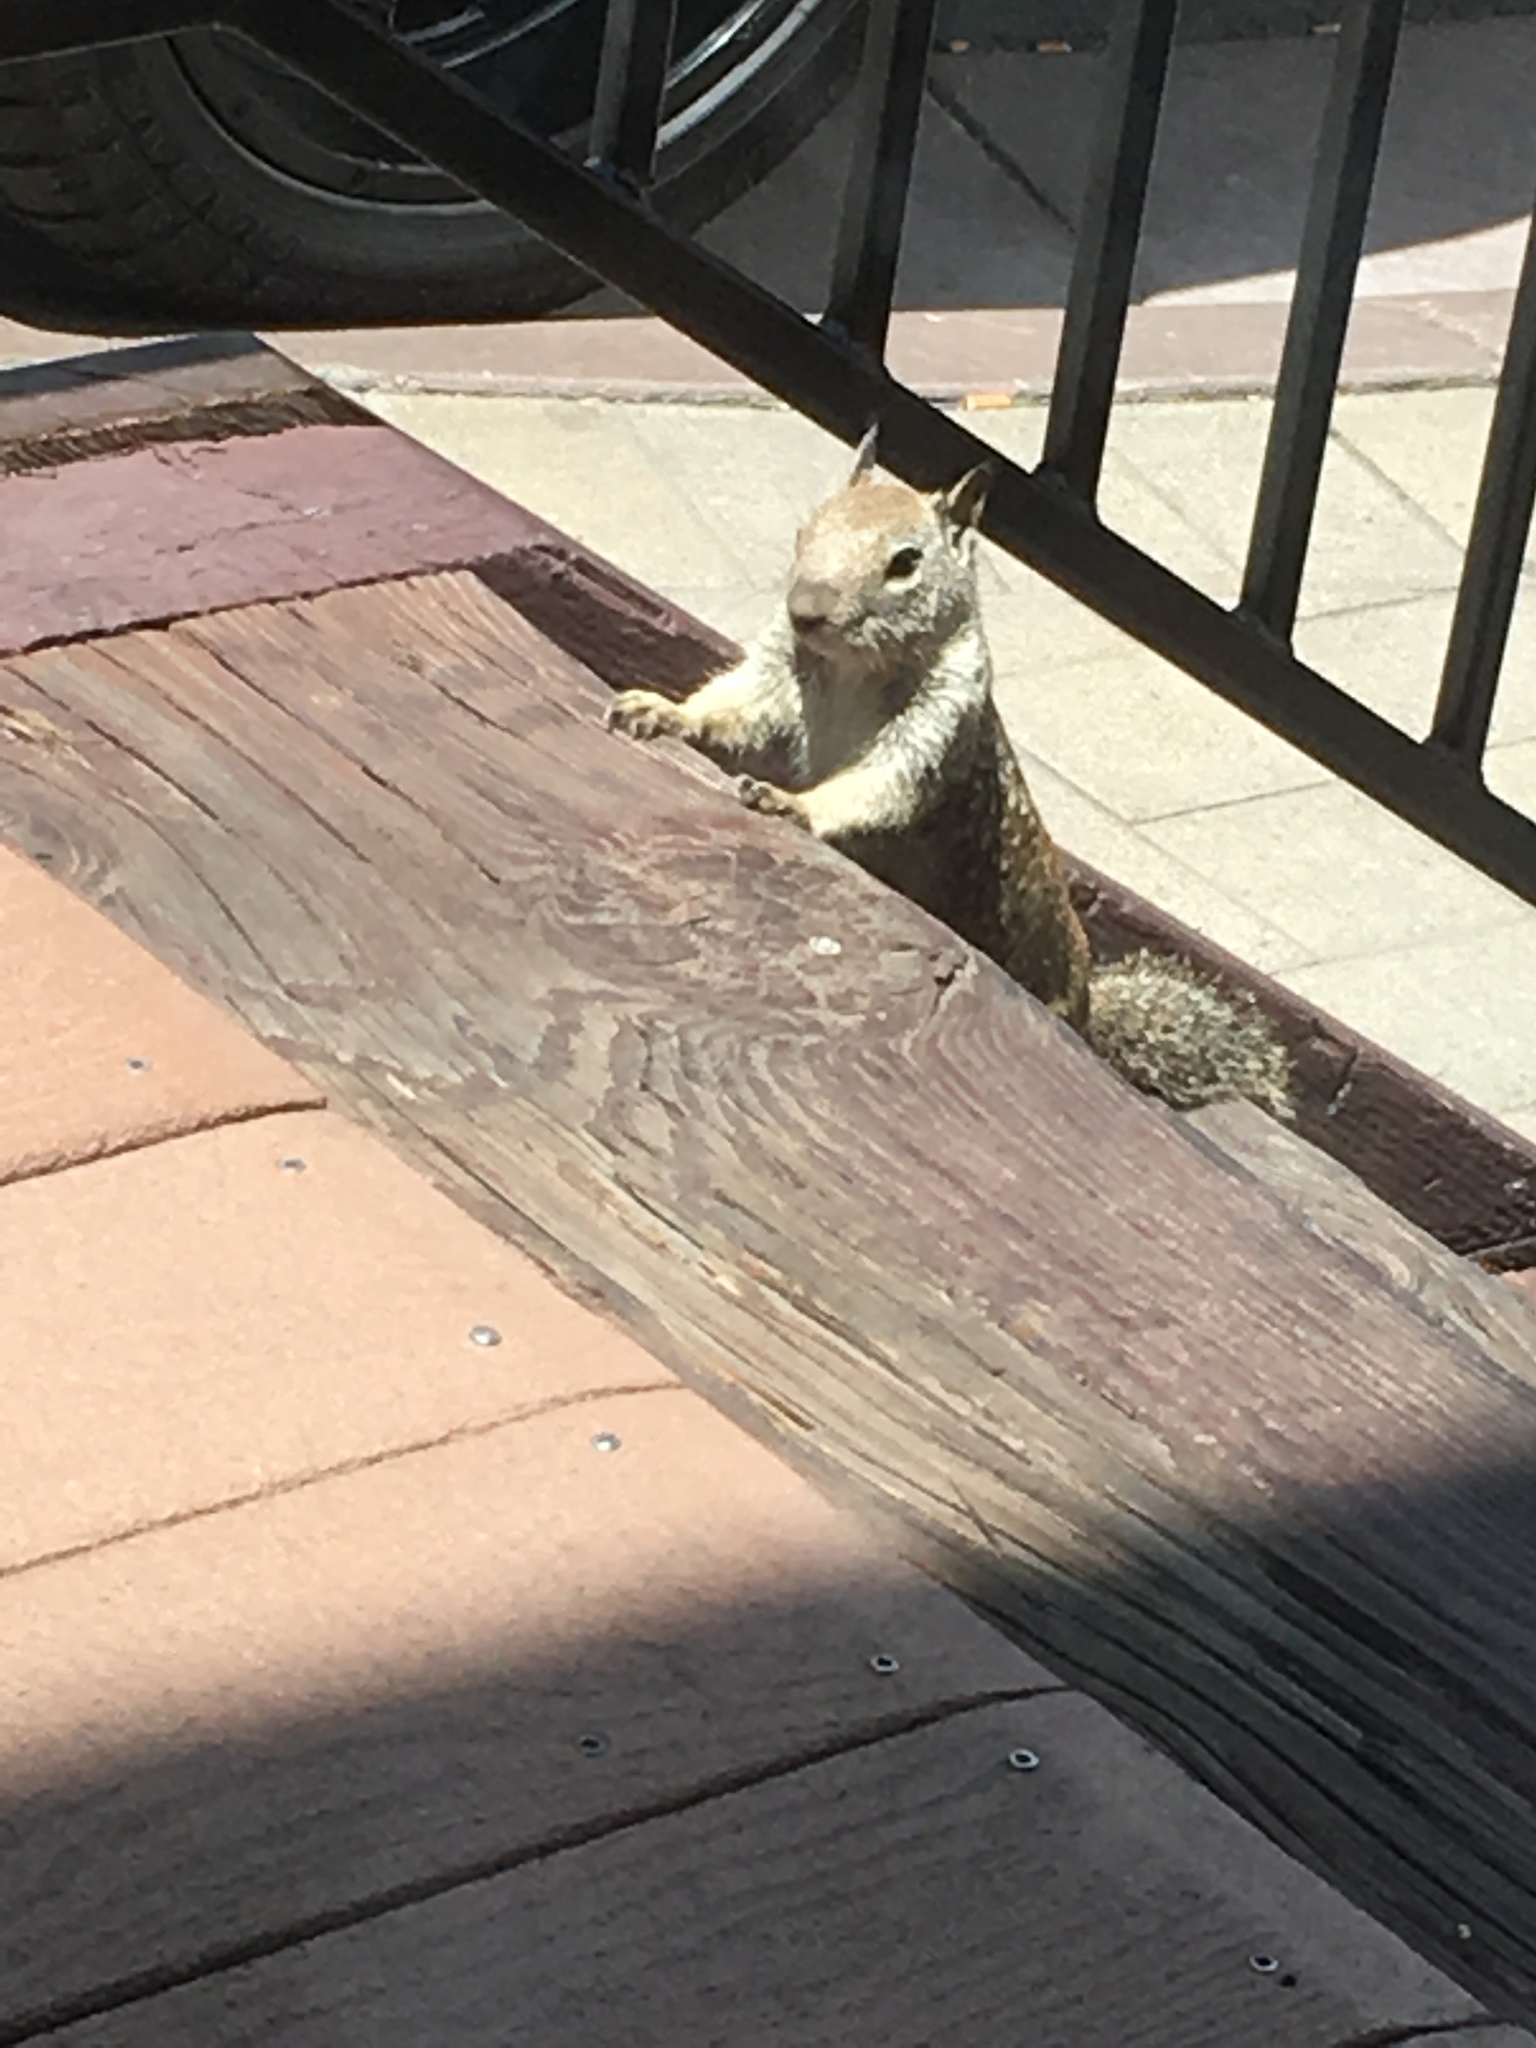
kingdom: Animalia
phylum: Chordata
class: Mammalia
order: Rodentia
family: Sciuridae
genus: Otospermophilus
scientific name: Otospermophilus beecheyi
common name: California ground squirrel
